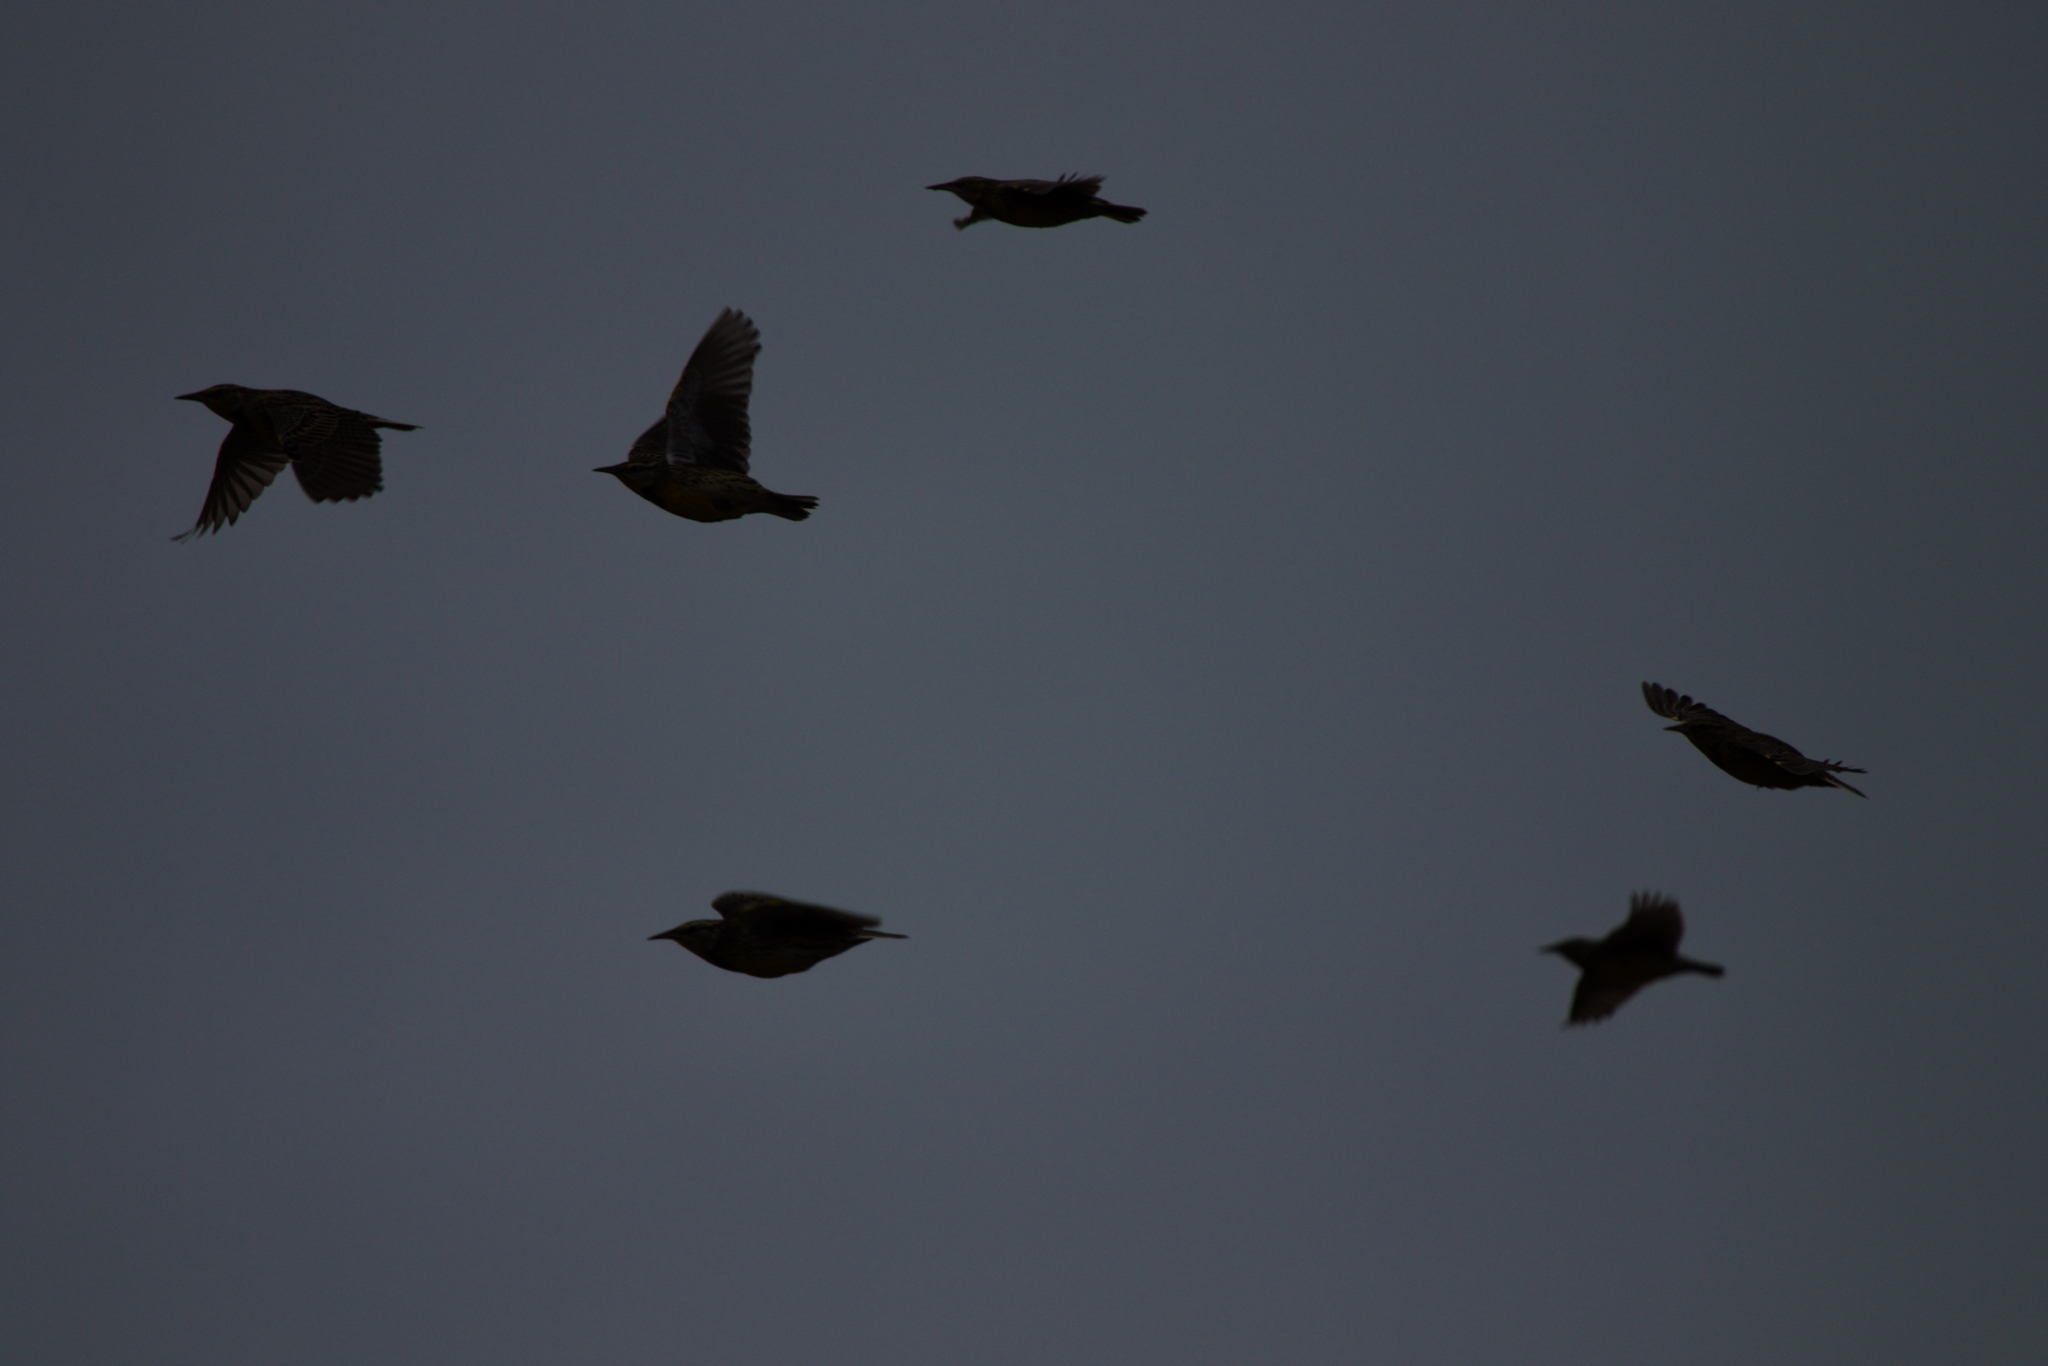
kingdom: Animalia
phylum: Chordata
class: Aves
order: Passeriformes
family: Icteridae
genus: Sturnella
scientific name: Sturnella neglecta
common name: Western meadowlark
